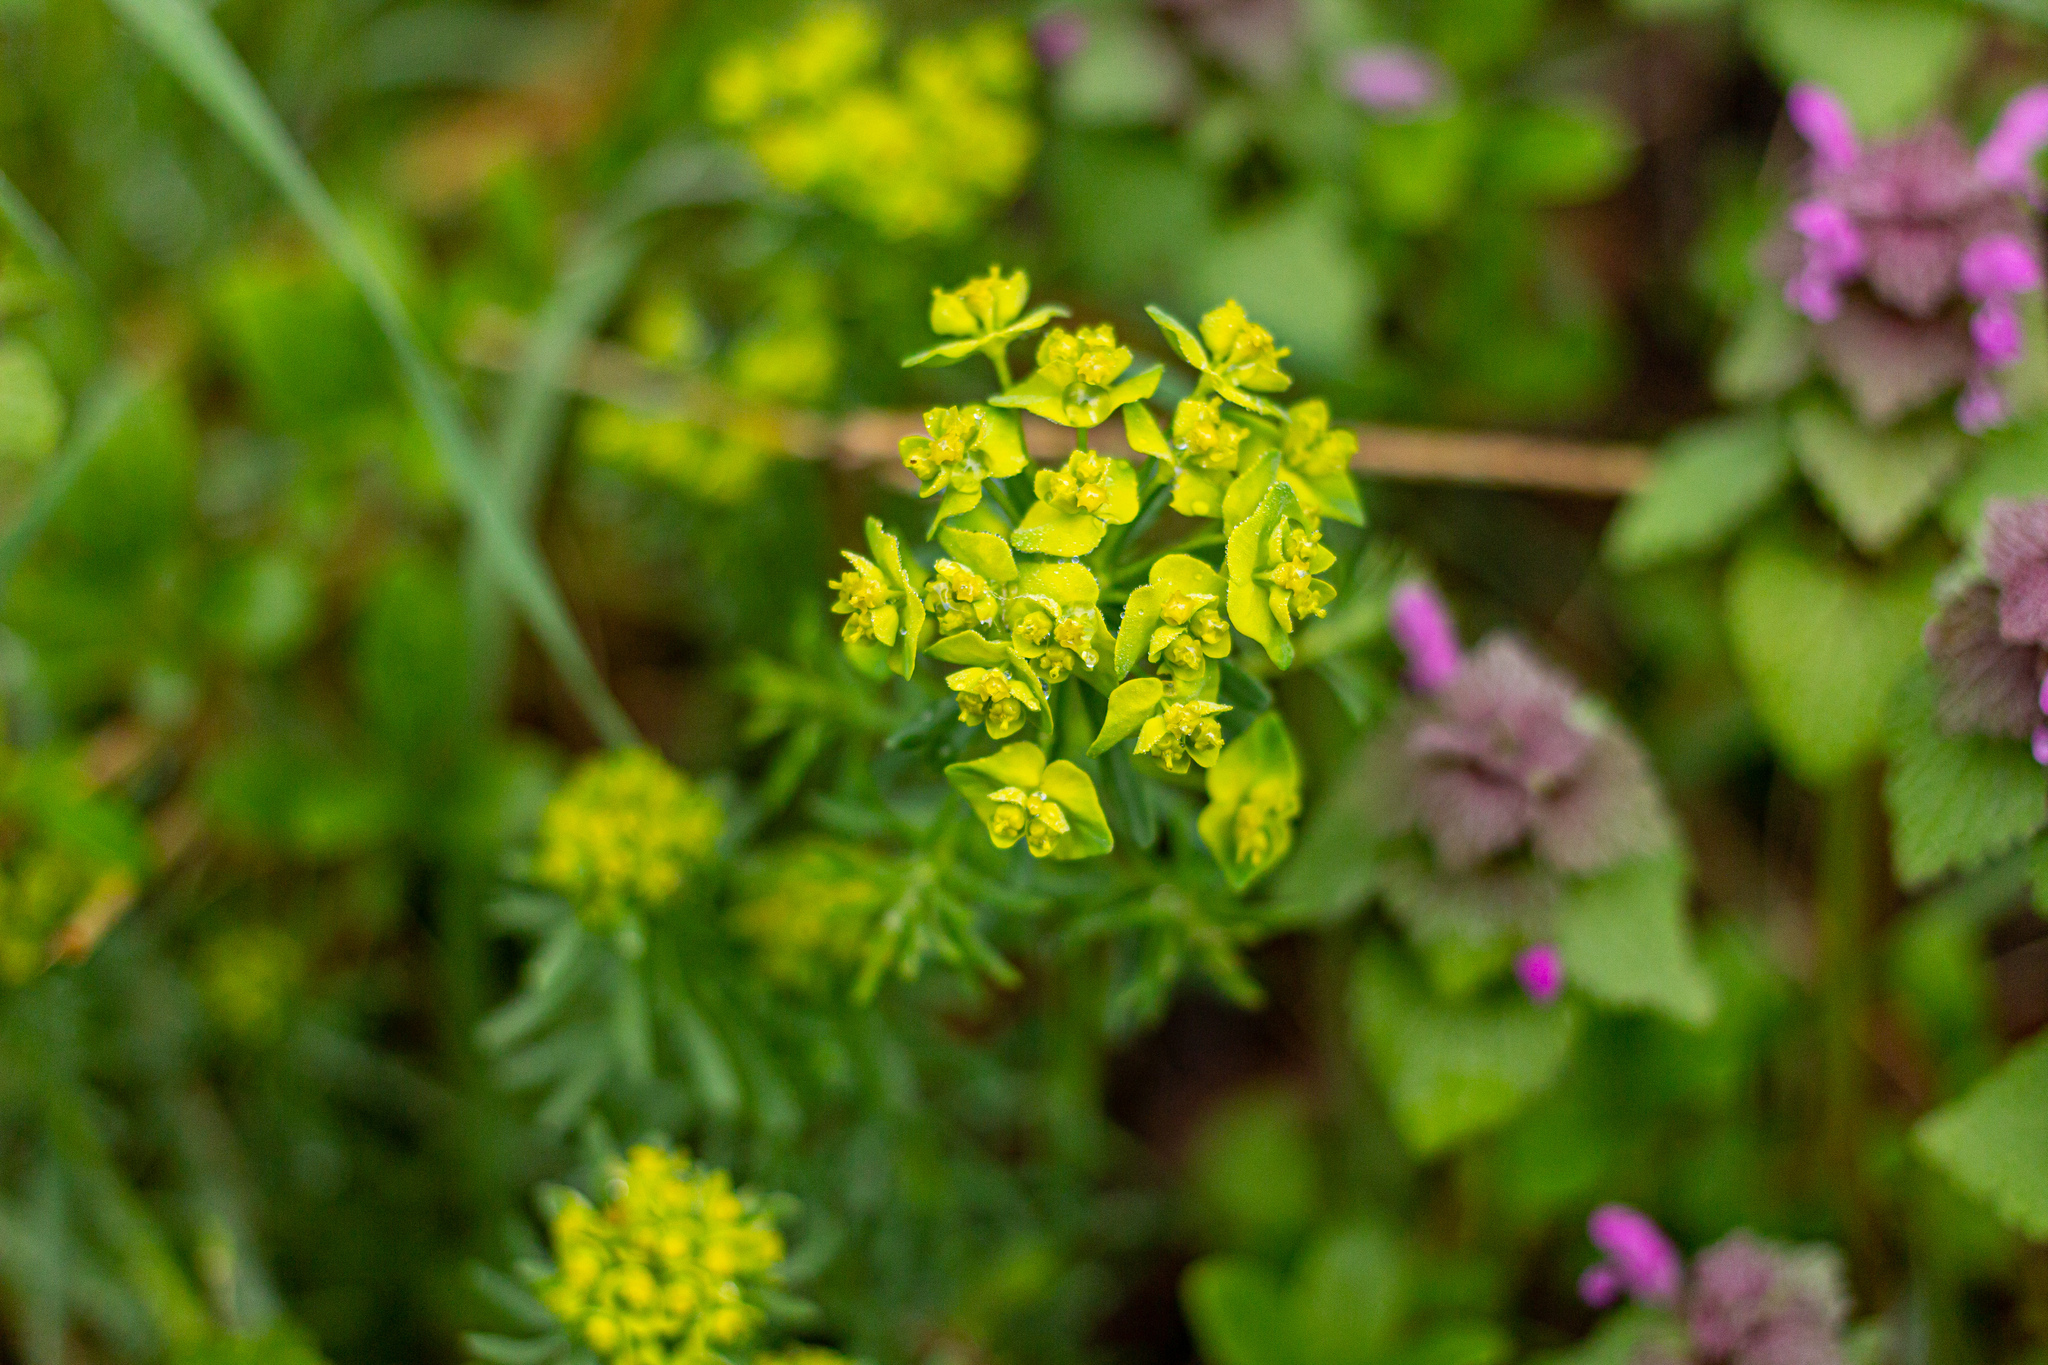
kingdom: Plantae
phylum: Tracheophyta
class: Magnoliopsida
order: Malpighiales
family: Euphorbiaceae
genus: Euphorbia
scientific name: Euphorbia cyparissias
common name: Cypress spurge
